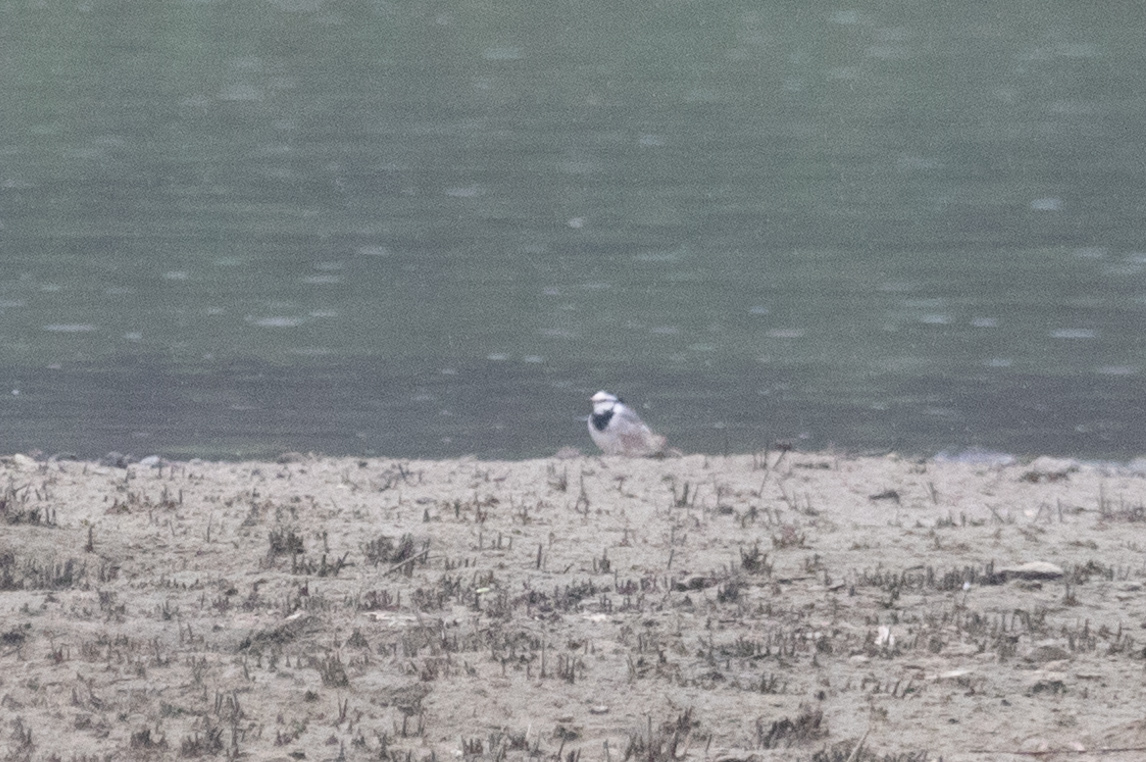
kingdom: Animalia
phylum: Chordata
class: Aves
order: Passeriformes
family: Motacillidae
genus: Motacilla
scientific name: Motacilla alba
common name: White wagtail
